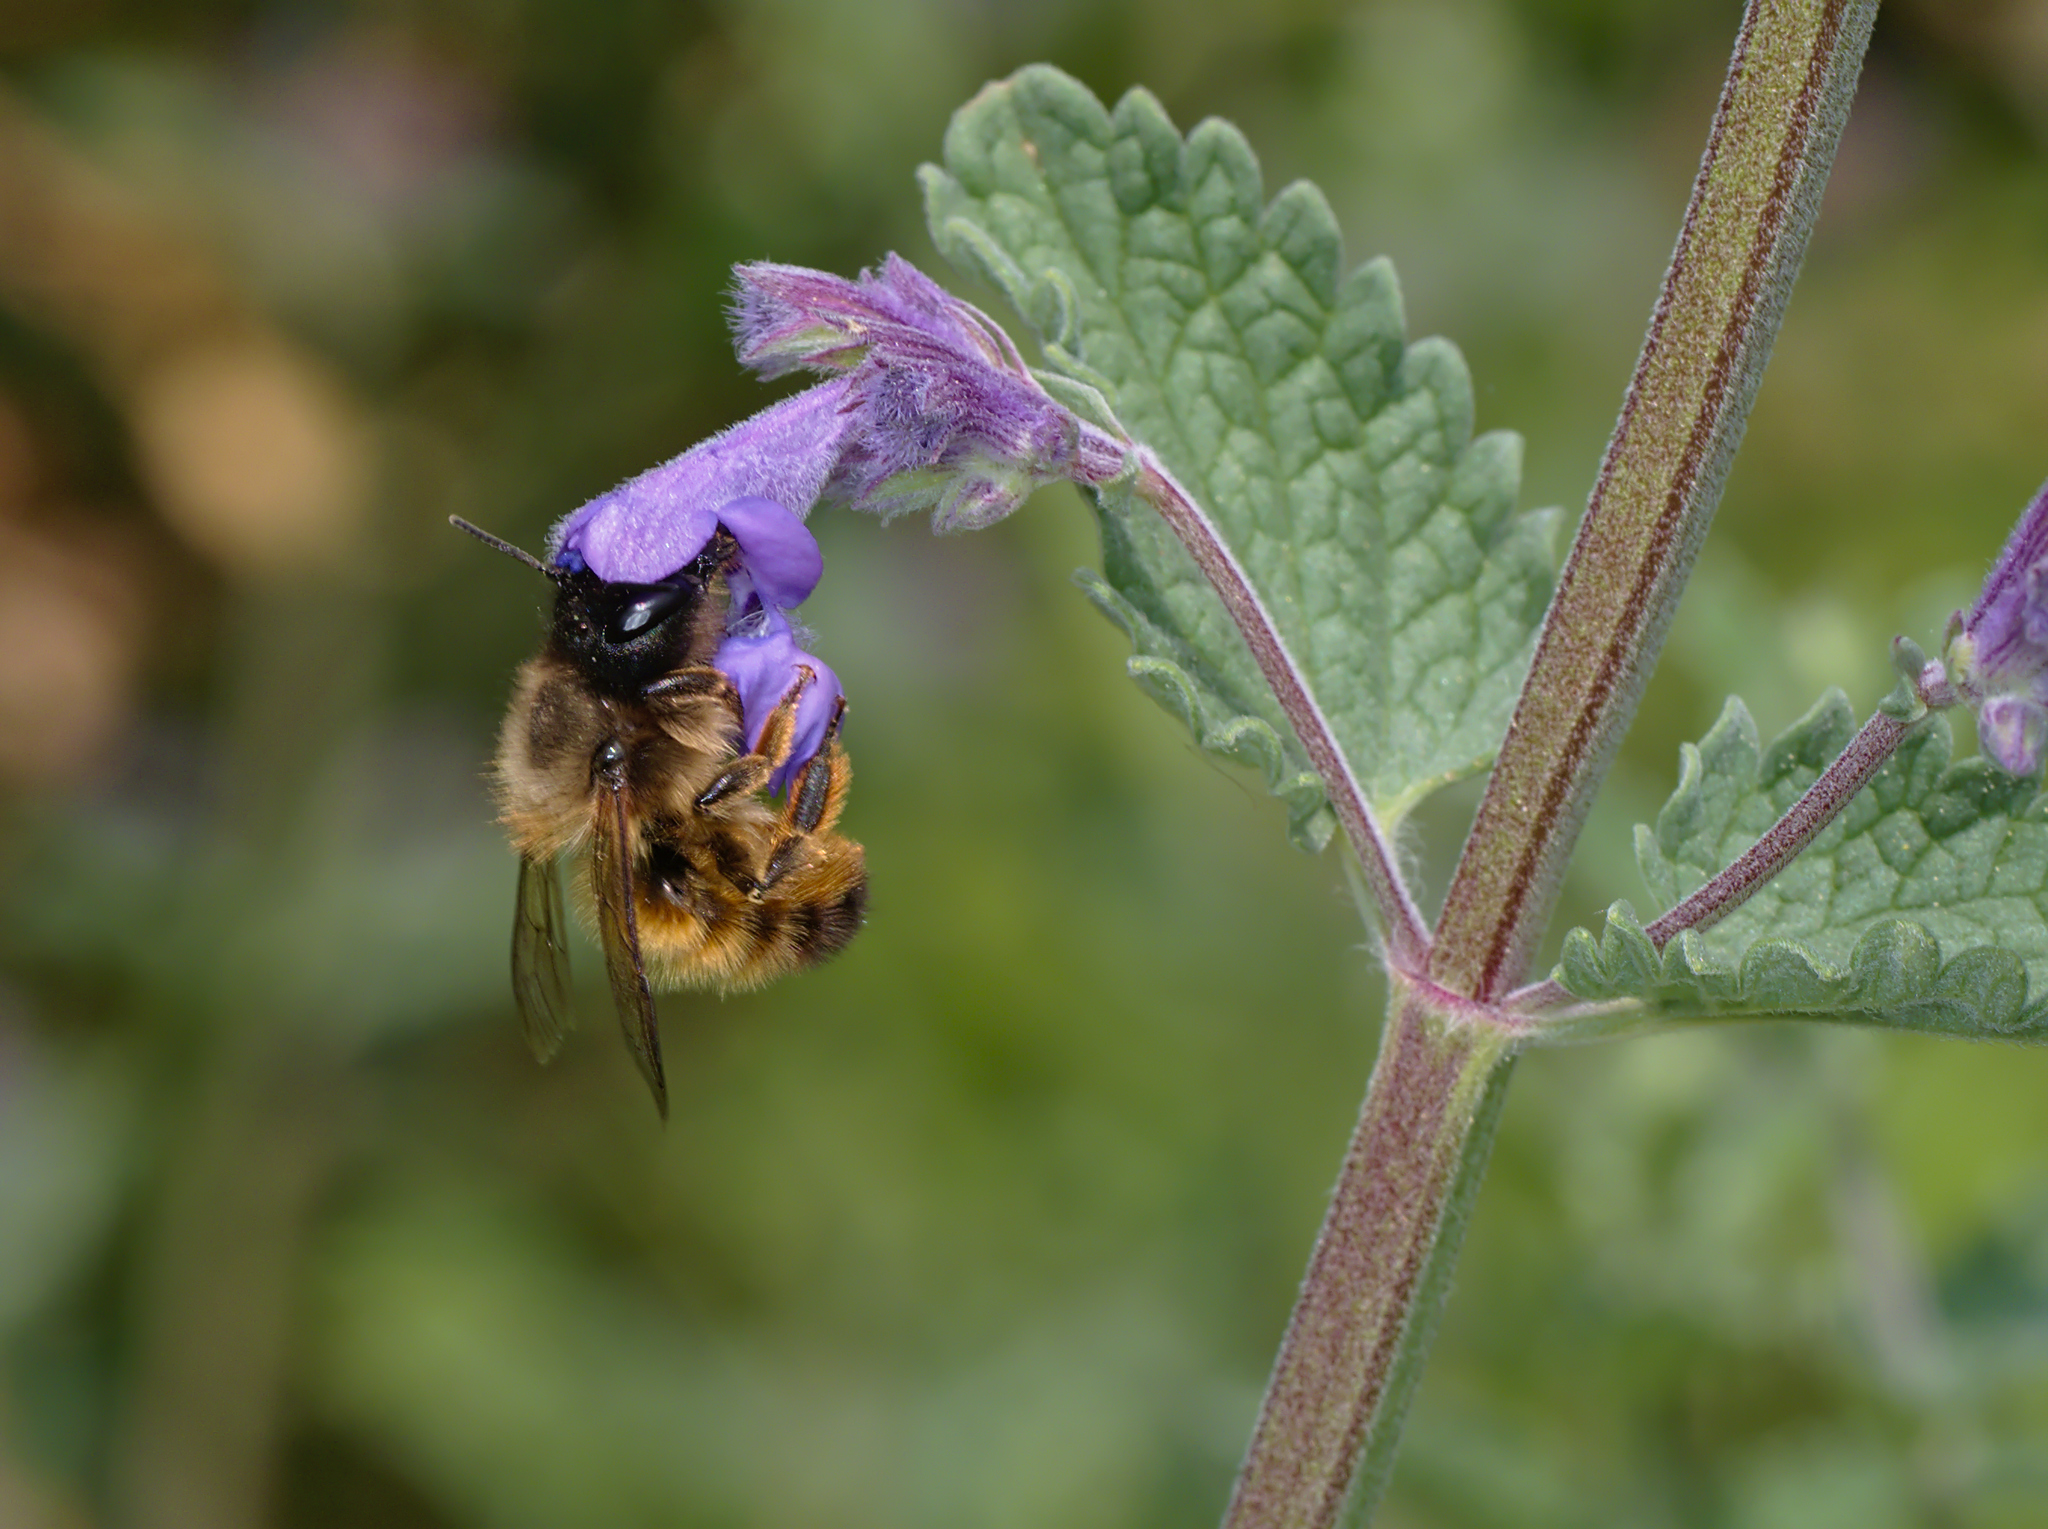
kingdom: Animalia
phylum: Arthropoda
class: Insecta
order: Hymenoptera
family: Megachilidae
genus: Osmia
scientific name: Osmia bicornis
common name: Red mason bee
